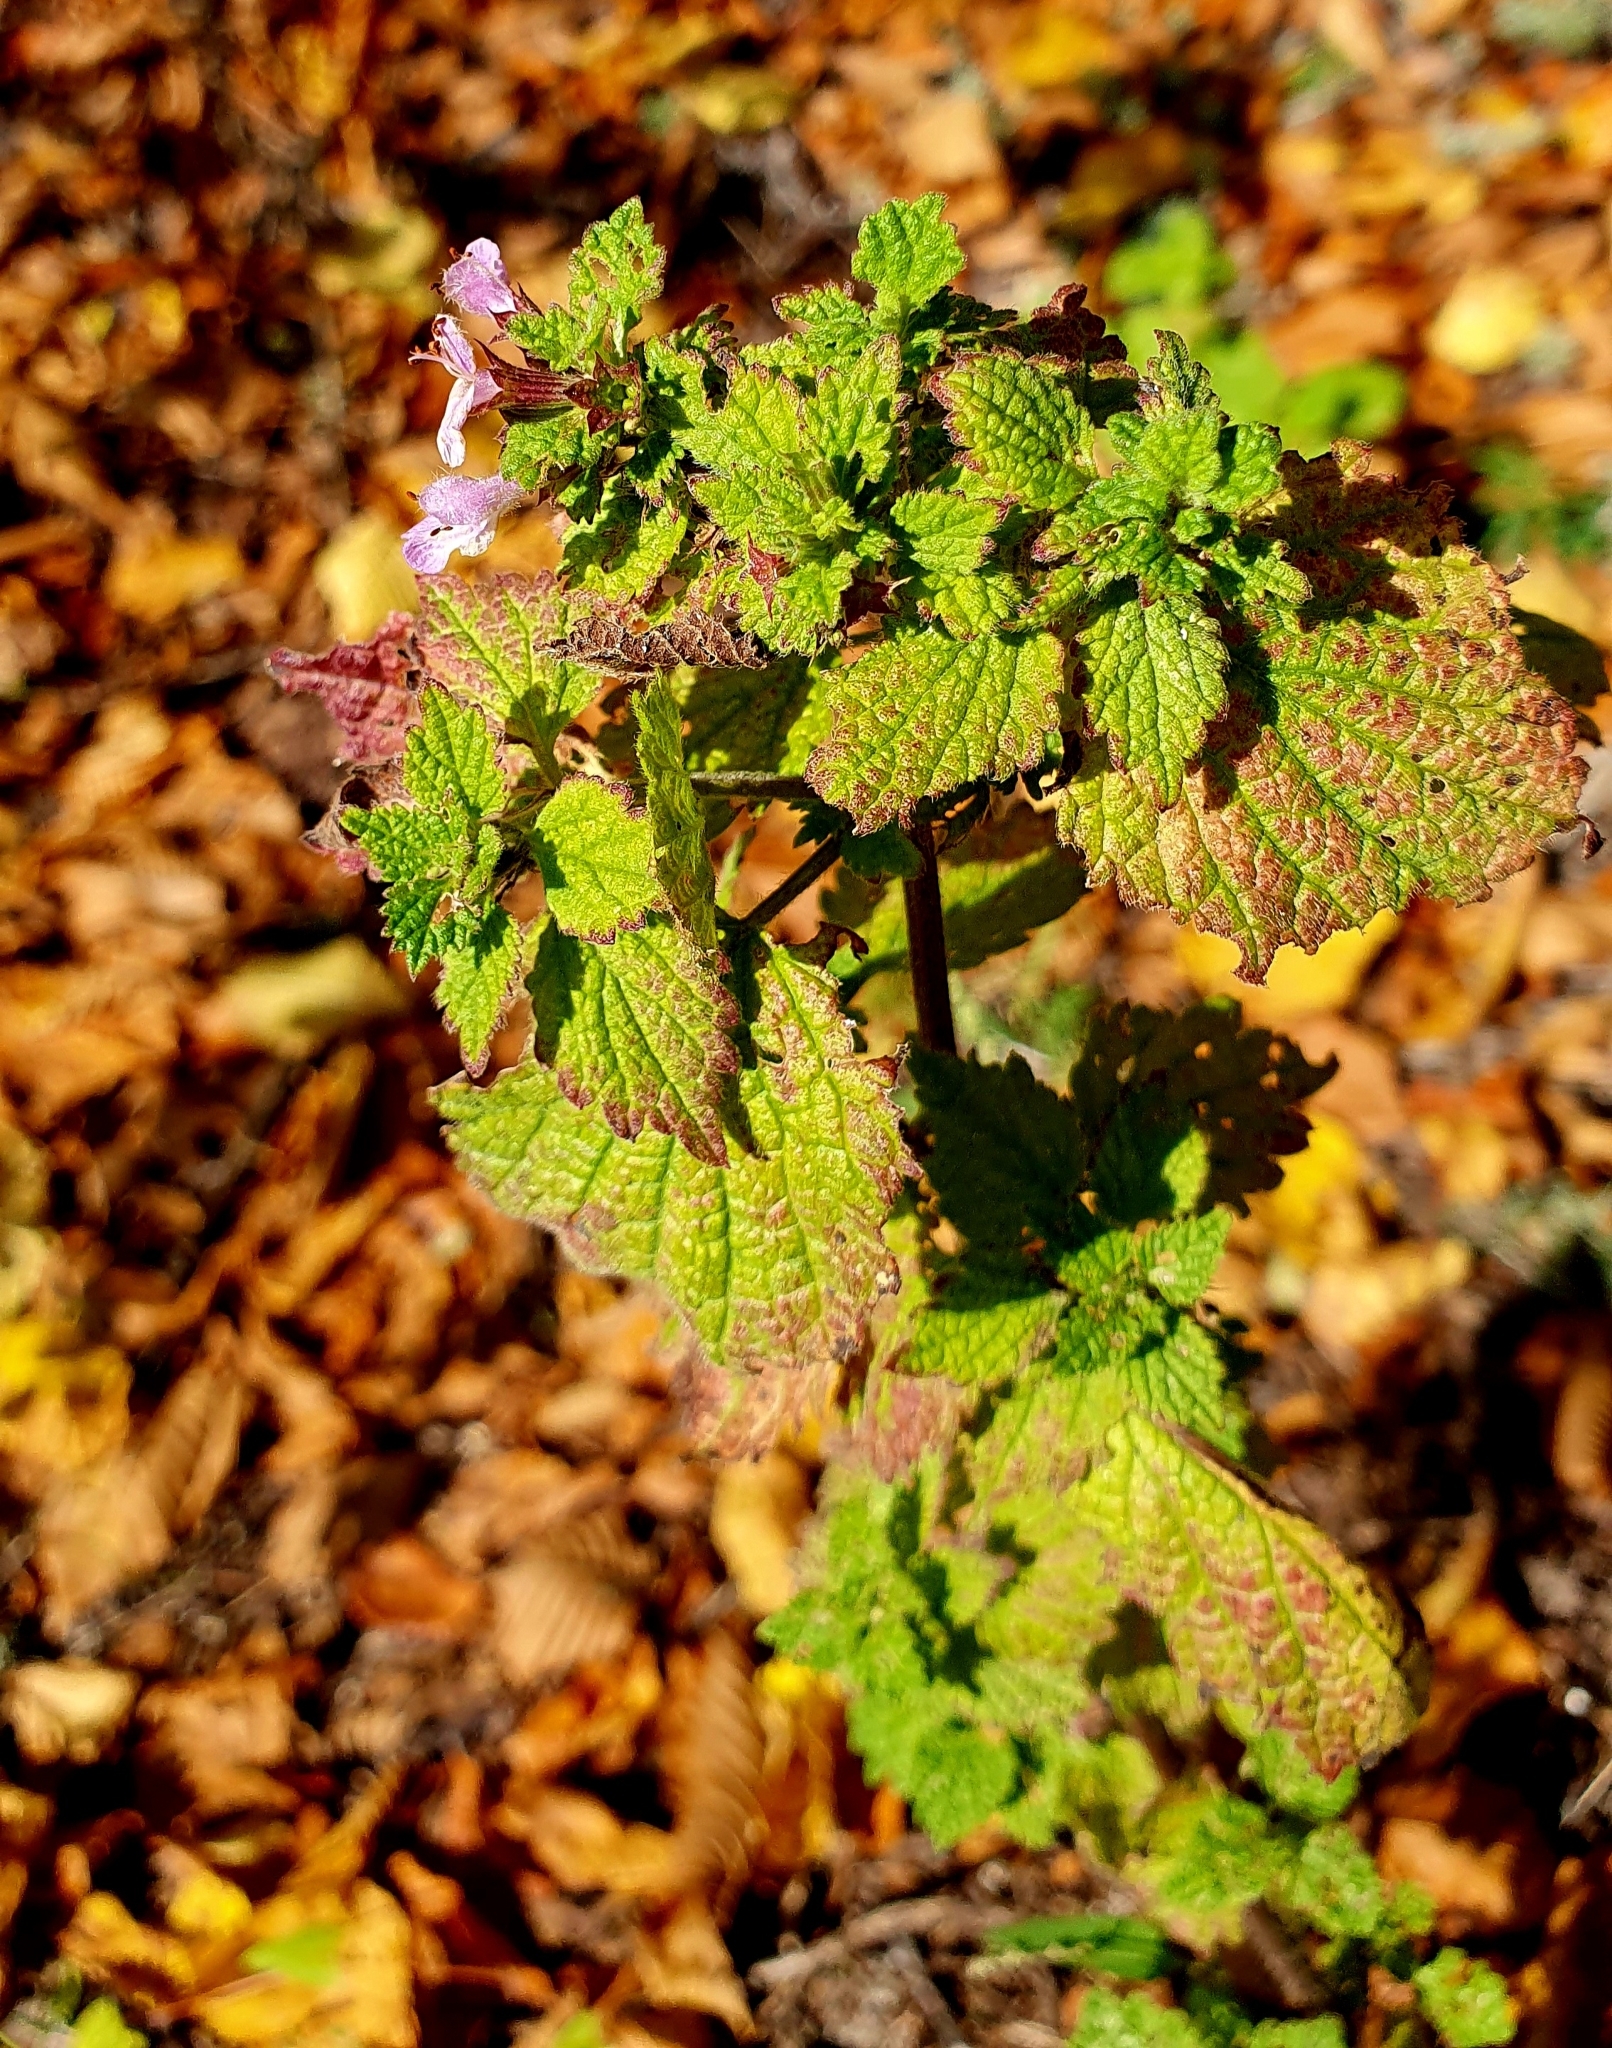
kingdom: Plantae
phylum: Tracheophyta
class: Magnoliopsida
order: Lamiales
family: Lamiaceae
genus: Ballota
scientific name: Ballota nigra
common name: Black horehound
